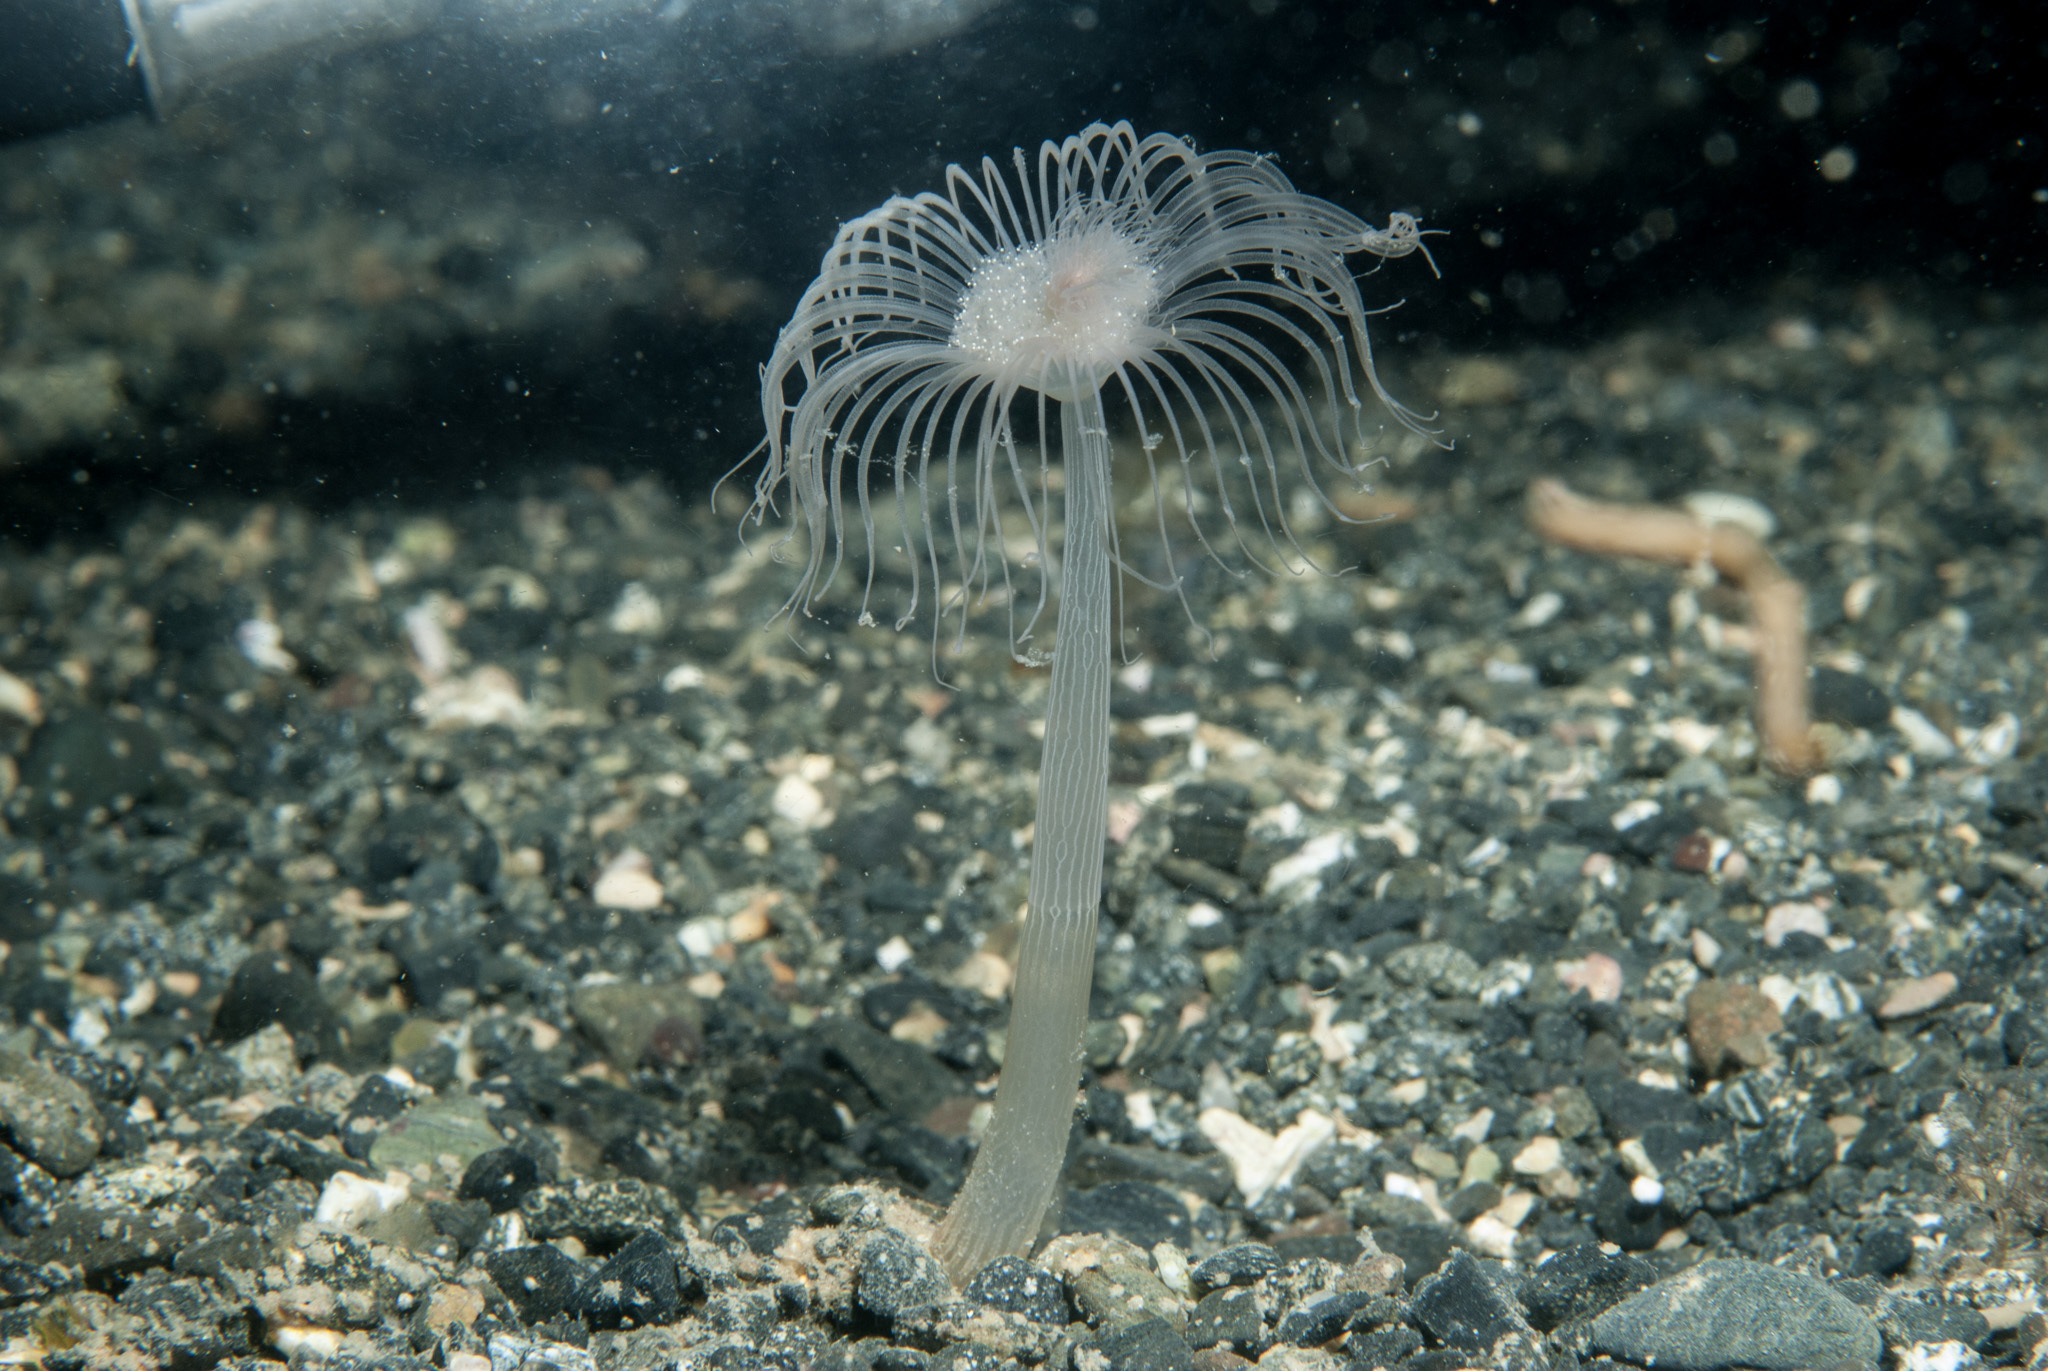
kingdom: Animalia
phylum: Cnidaria
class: Hydrozoa
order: Anthoathecata
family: Corymorphidae
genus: Corymorpha
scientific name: Corymorpha nutans
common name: Nodding hydroid
